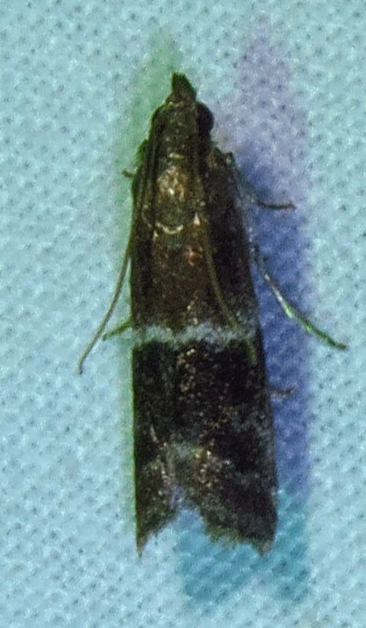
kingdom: Animalia
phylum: Arthropoda
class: Insecta
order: Lepidoptera
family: Pyralidae
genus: Moodna
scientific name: Moodna ostrinella
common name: Darker moodna moth
